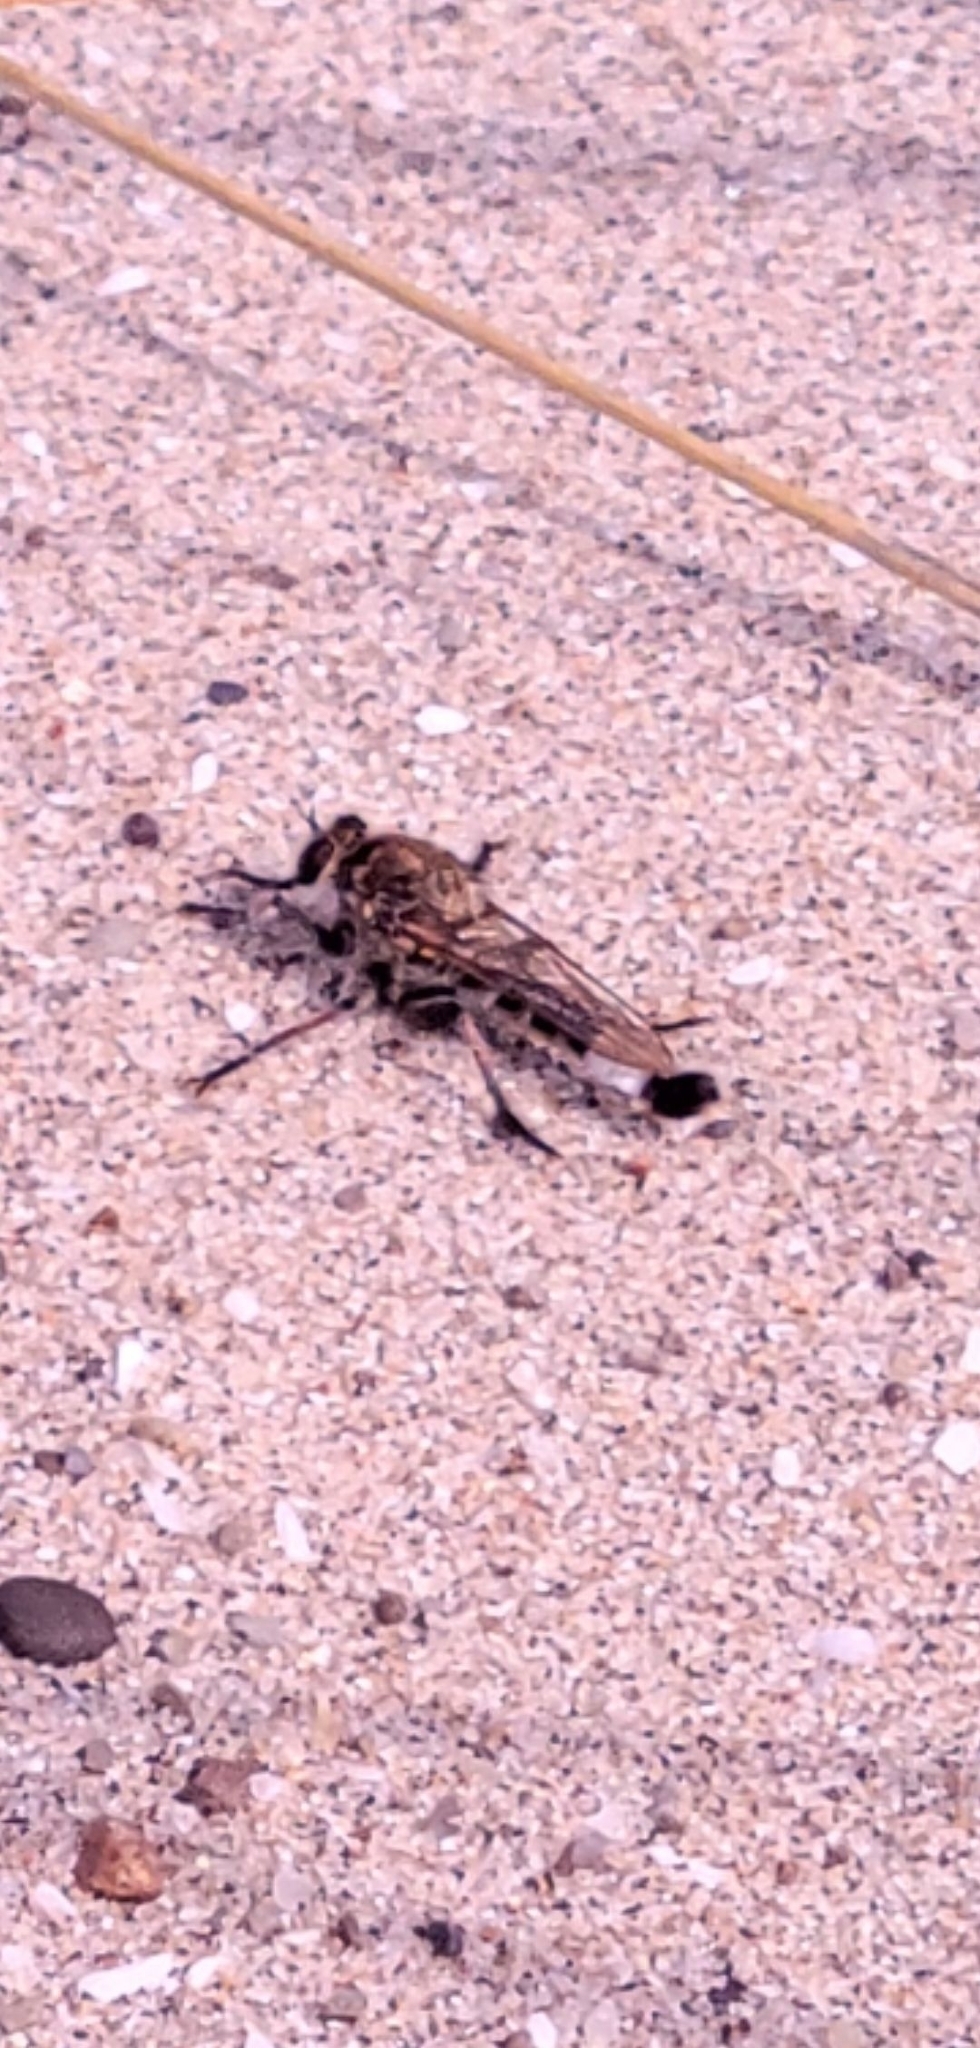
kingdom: Animalia
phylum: Arthropoda
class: Insecta
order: Diptera
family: Asilidae
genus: Efferia
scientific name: Efferia albibarbis
